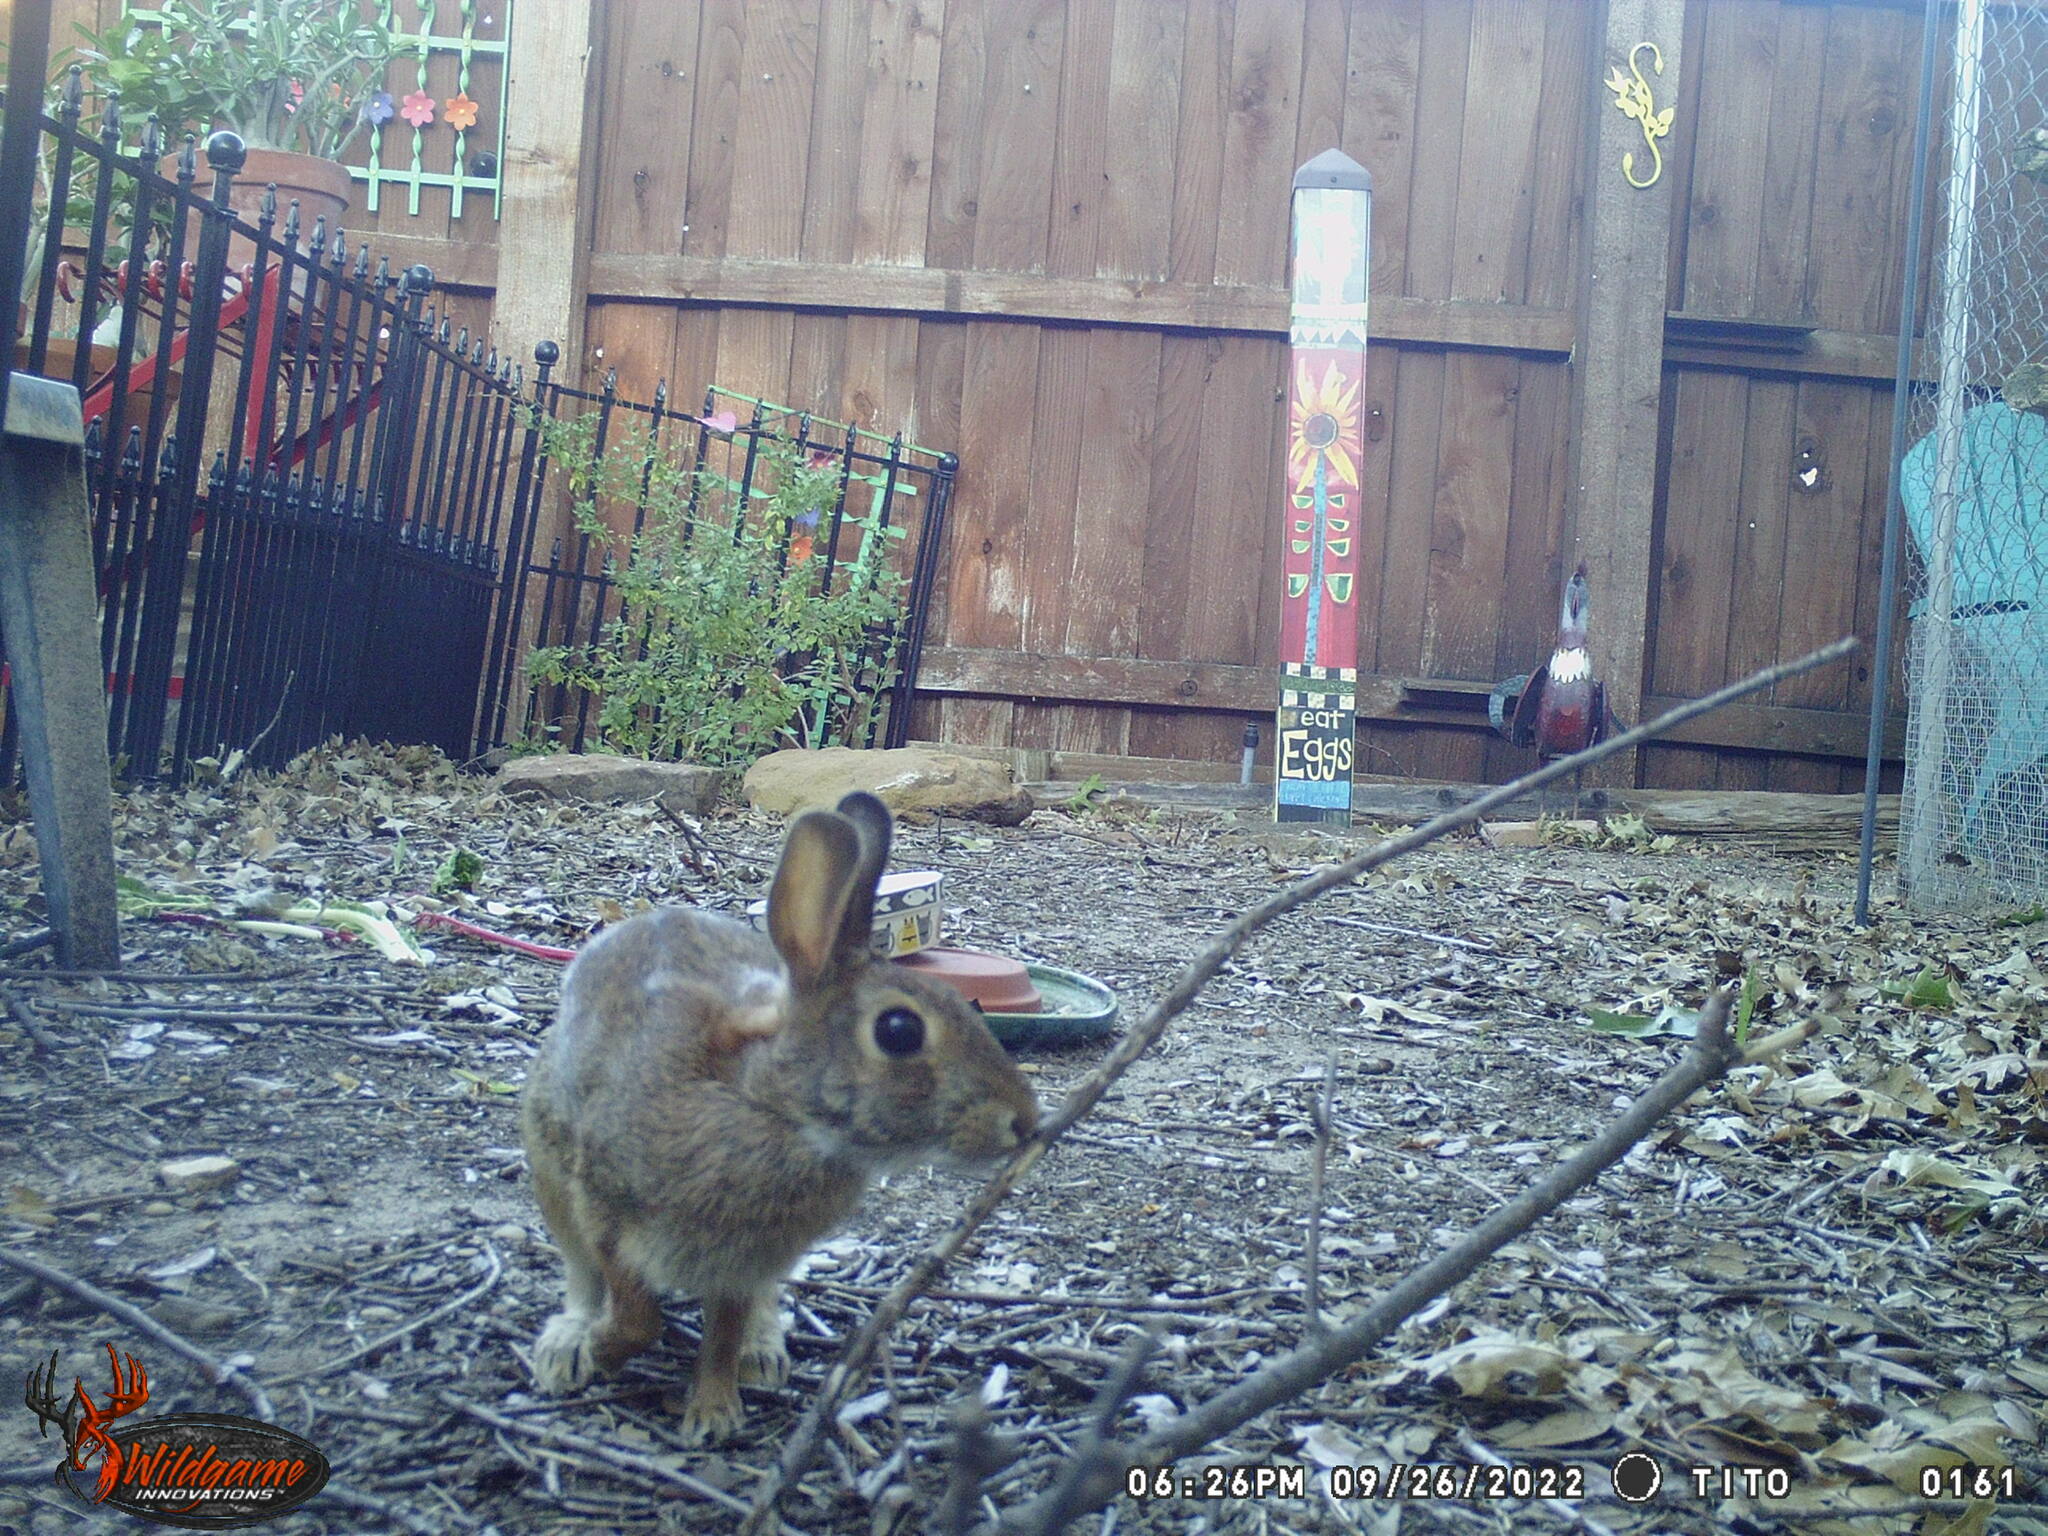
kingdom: Animalia
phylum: Chordata
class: Mammalia
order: Lagomorpha
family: Leporidae
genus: Sylvilagus
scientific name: Sylvilagus floridanus
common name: Eastern cottontail
